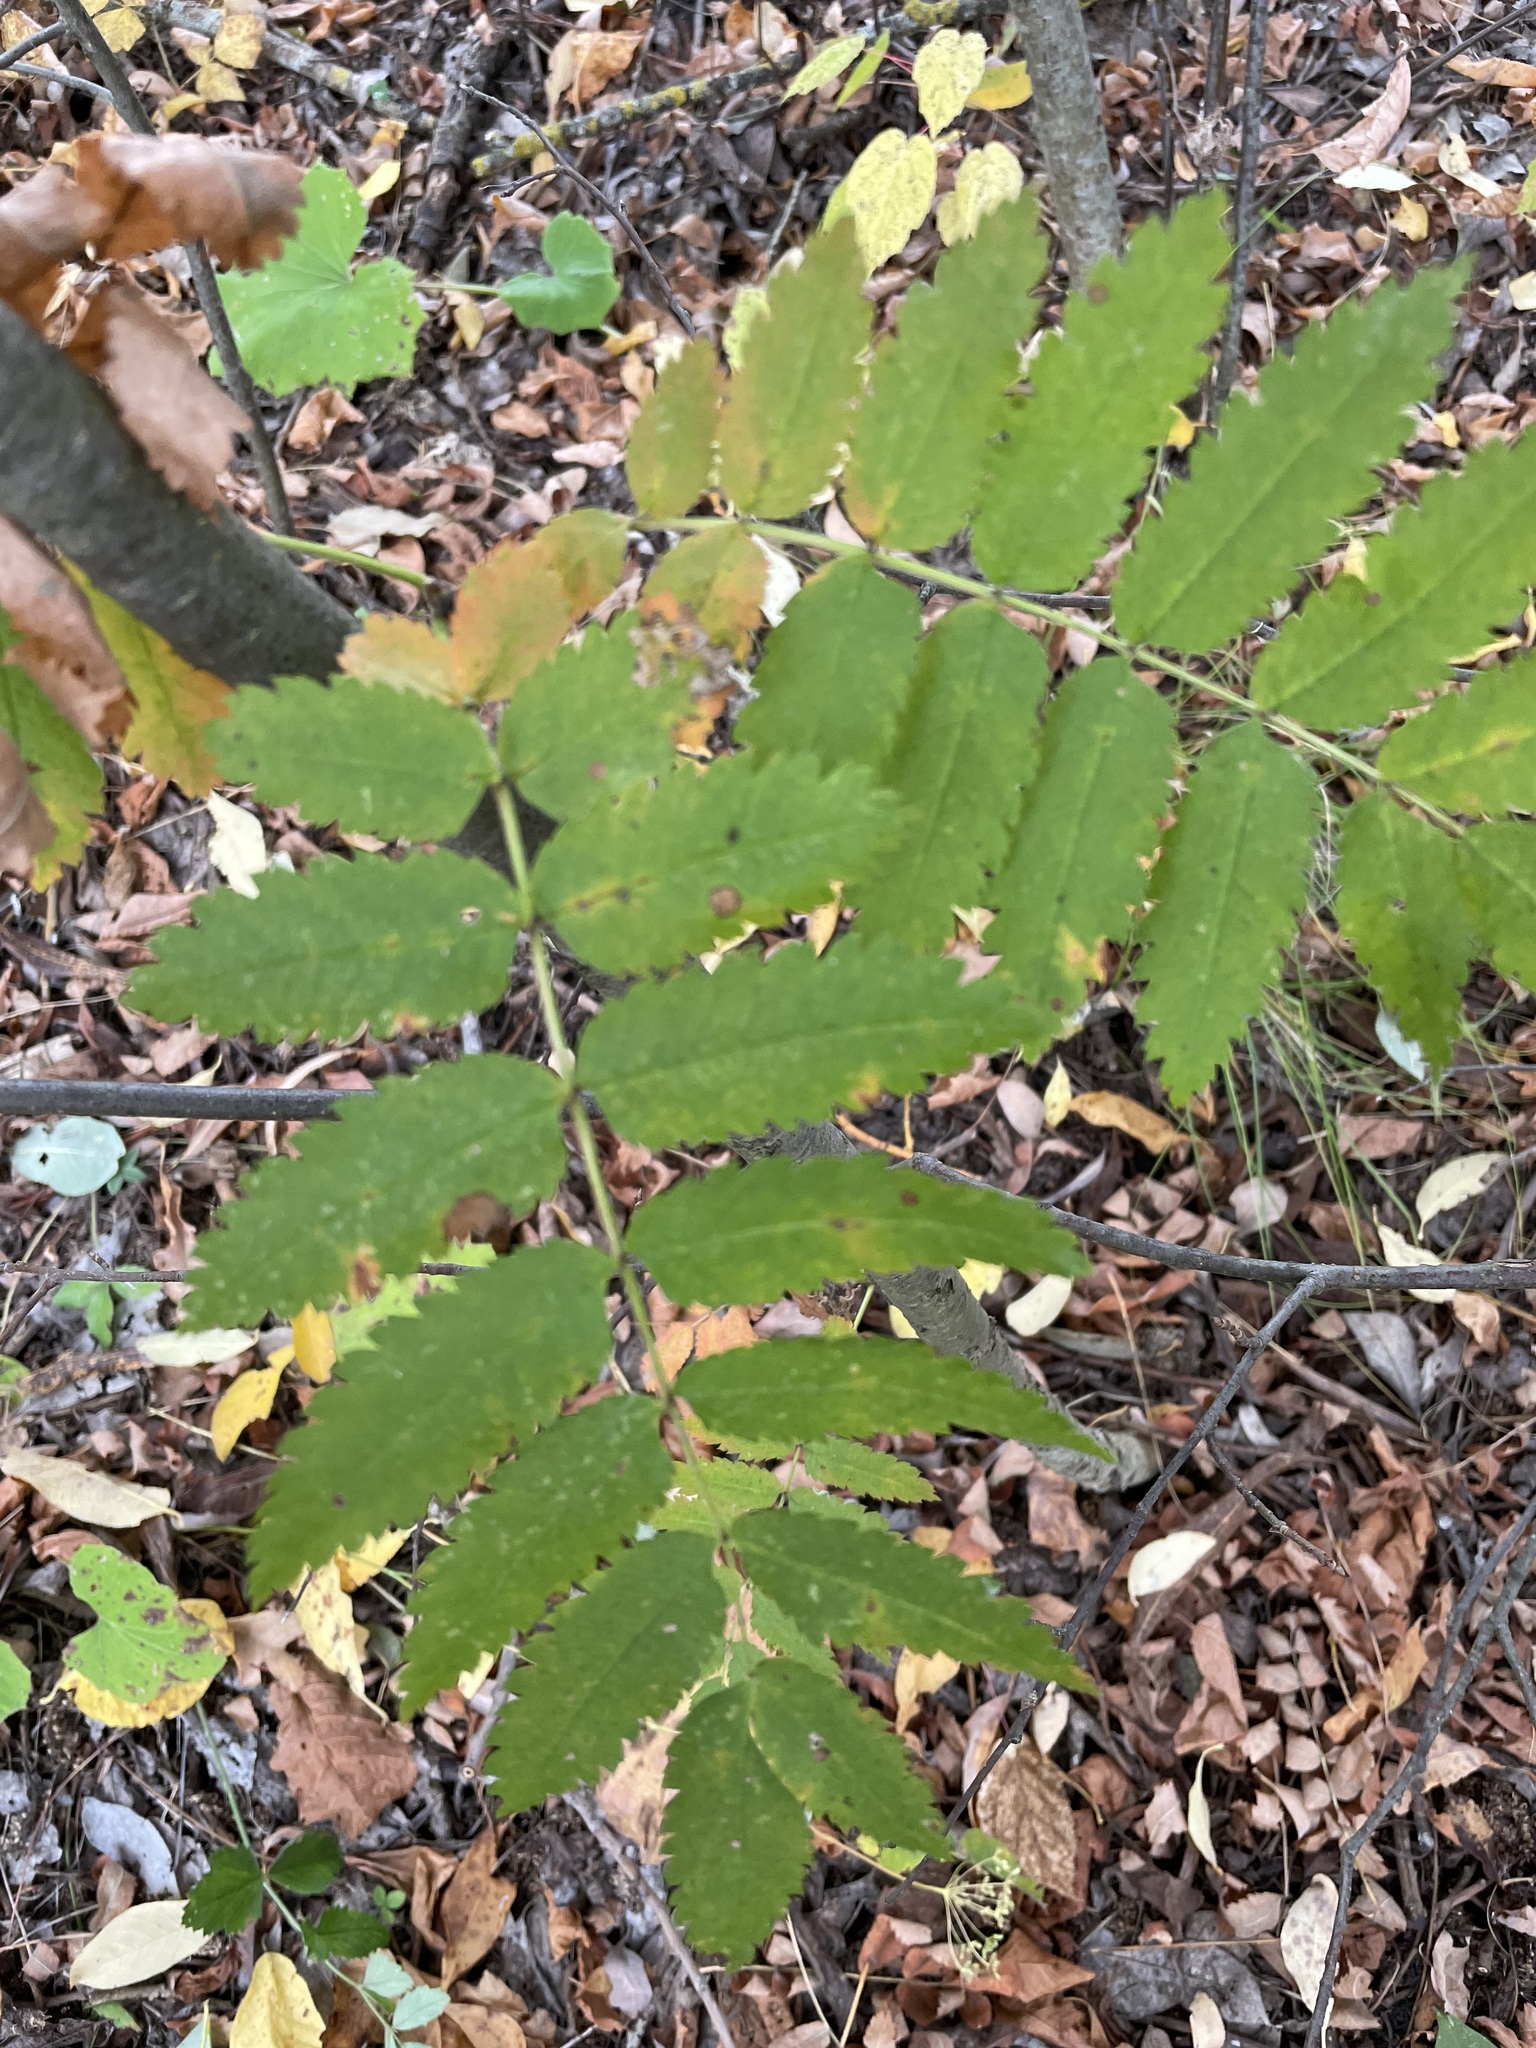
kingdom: Plantae
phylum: Tracheophyta
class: Magnoliopsida
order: Rosales
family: Rosaceae
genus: Sorbus
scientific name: Sorbus aucuparia
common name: Rowan
